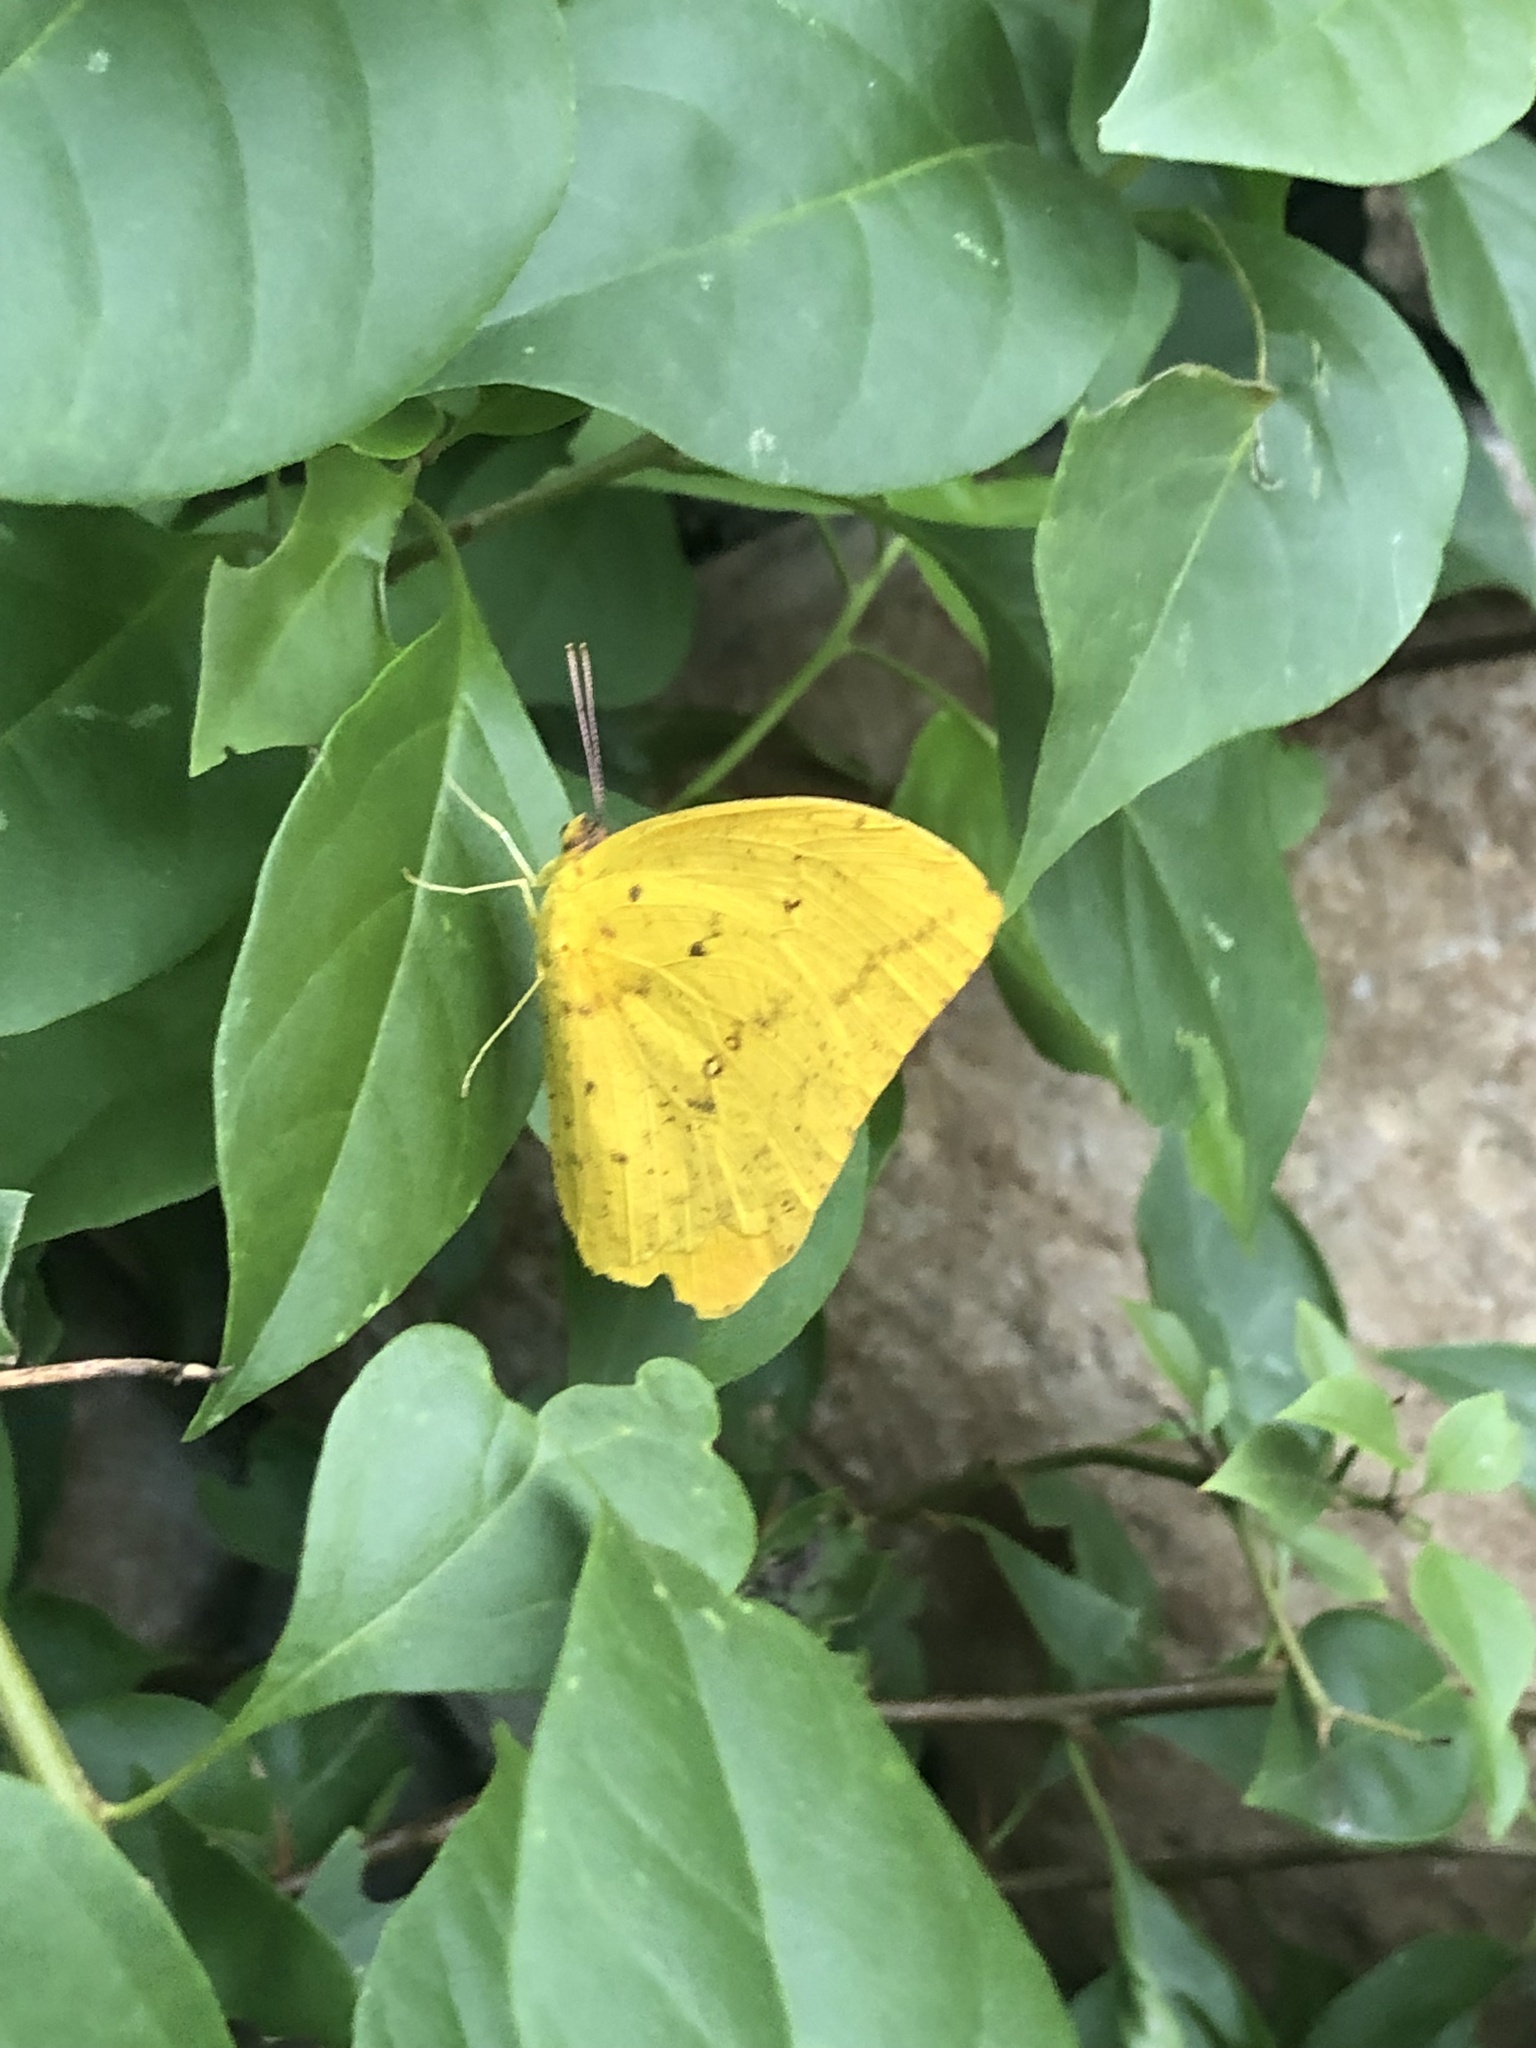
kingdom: Animalia
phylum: Arthropoda
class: Insecta
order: Lepidoptera
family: Pieridae
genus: Phoebis
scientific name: Phoebis agarithe
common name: Large orange sulphur
